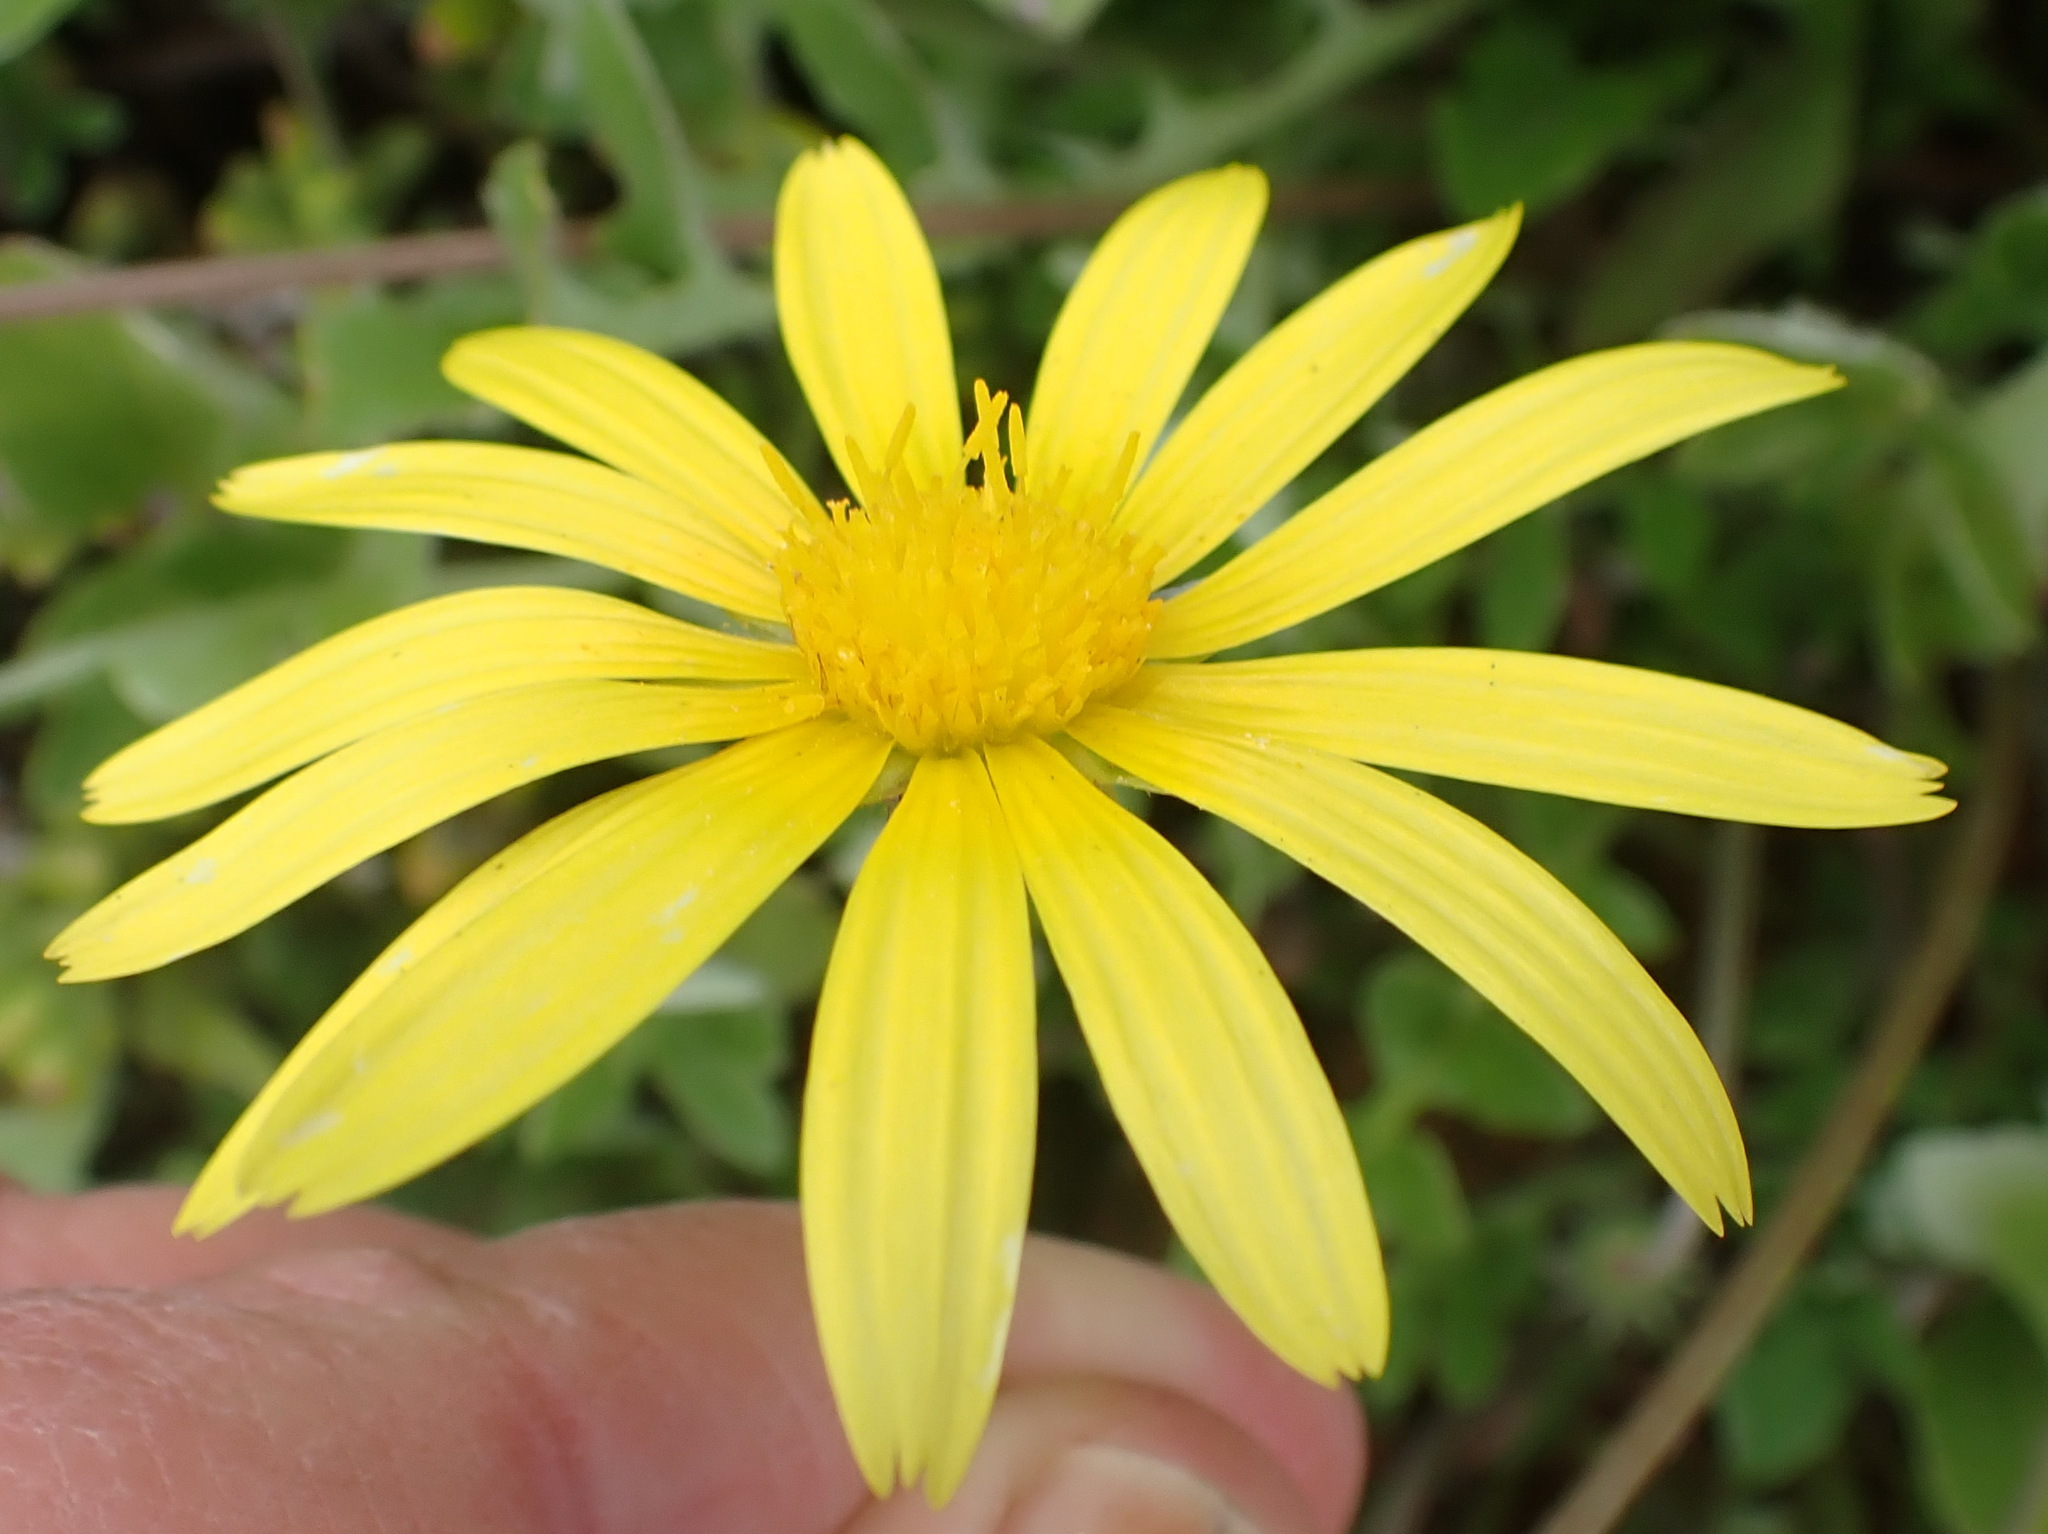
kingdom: Plantae
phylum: Tracheophyta
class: Magnoliopsida
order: Asterales
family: Asteraceae
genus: Arctotheca
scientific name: Arctotheca prostrata
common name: Capeweed
